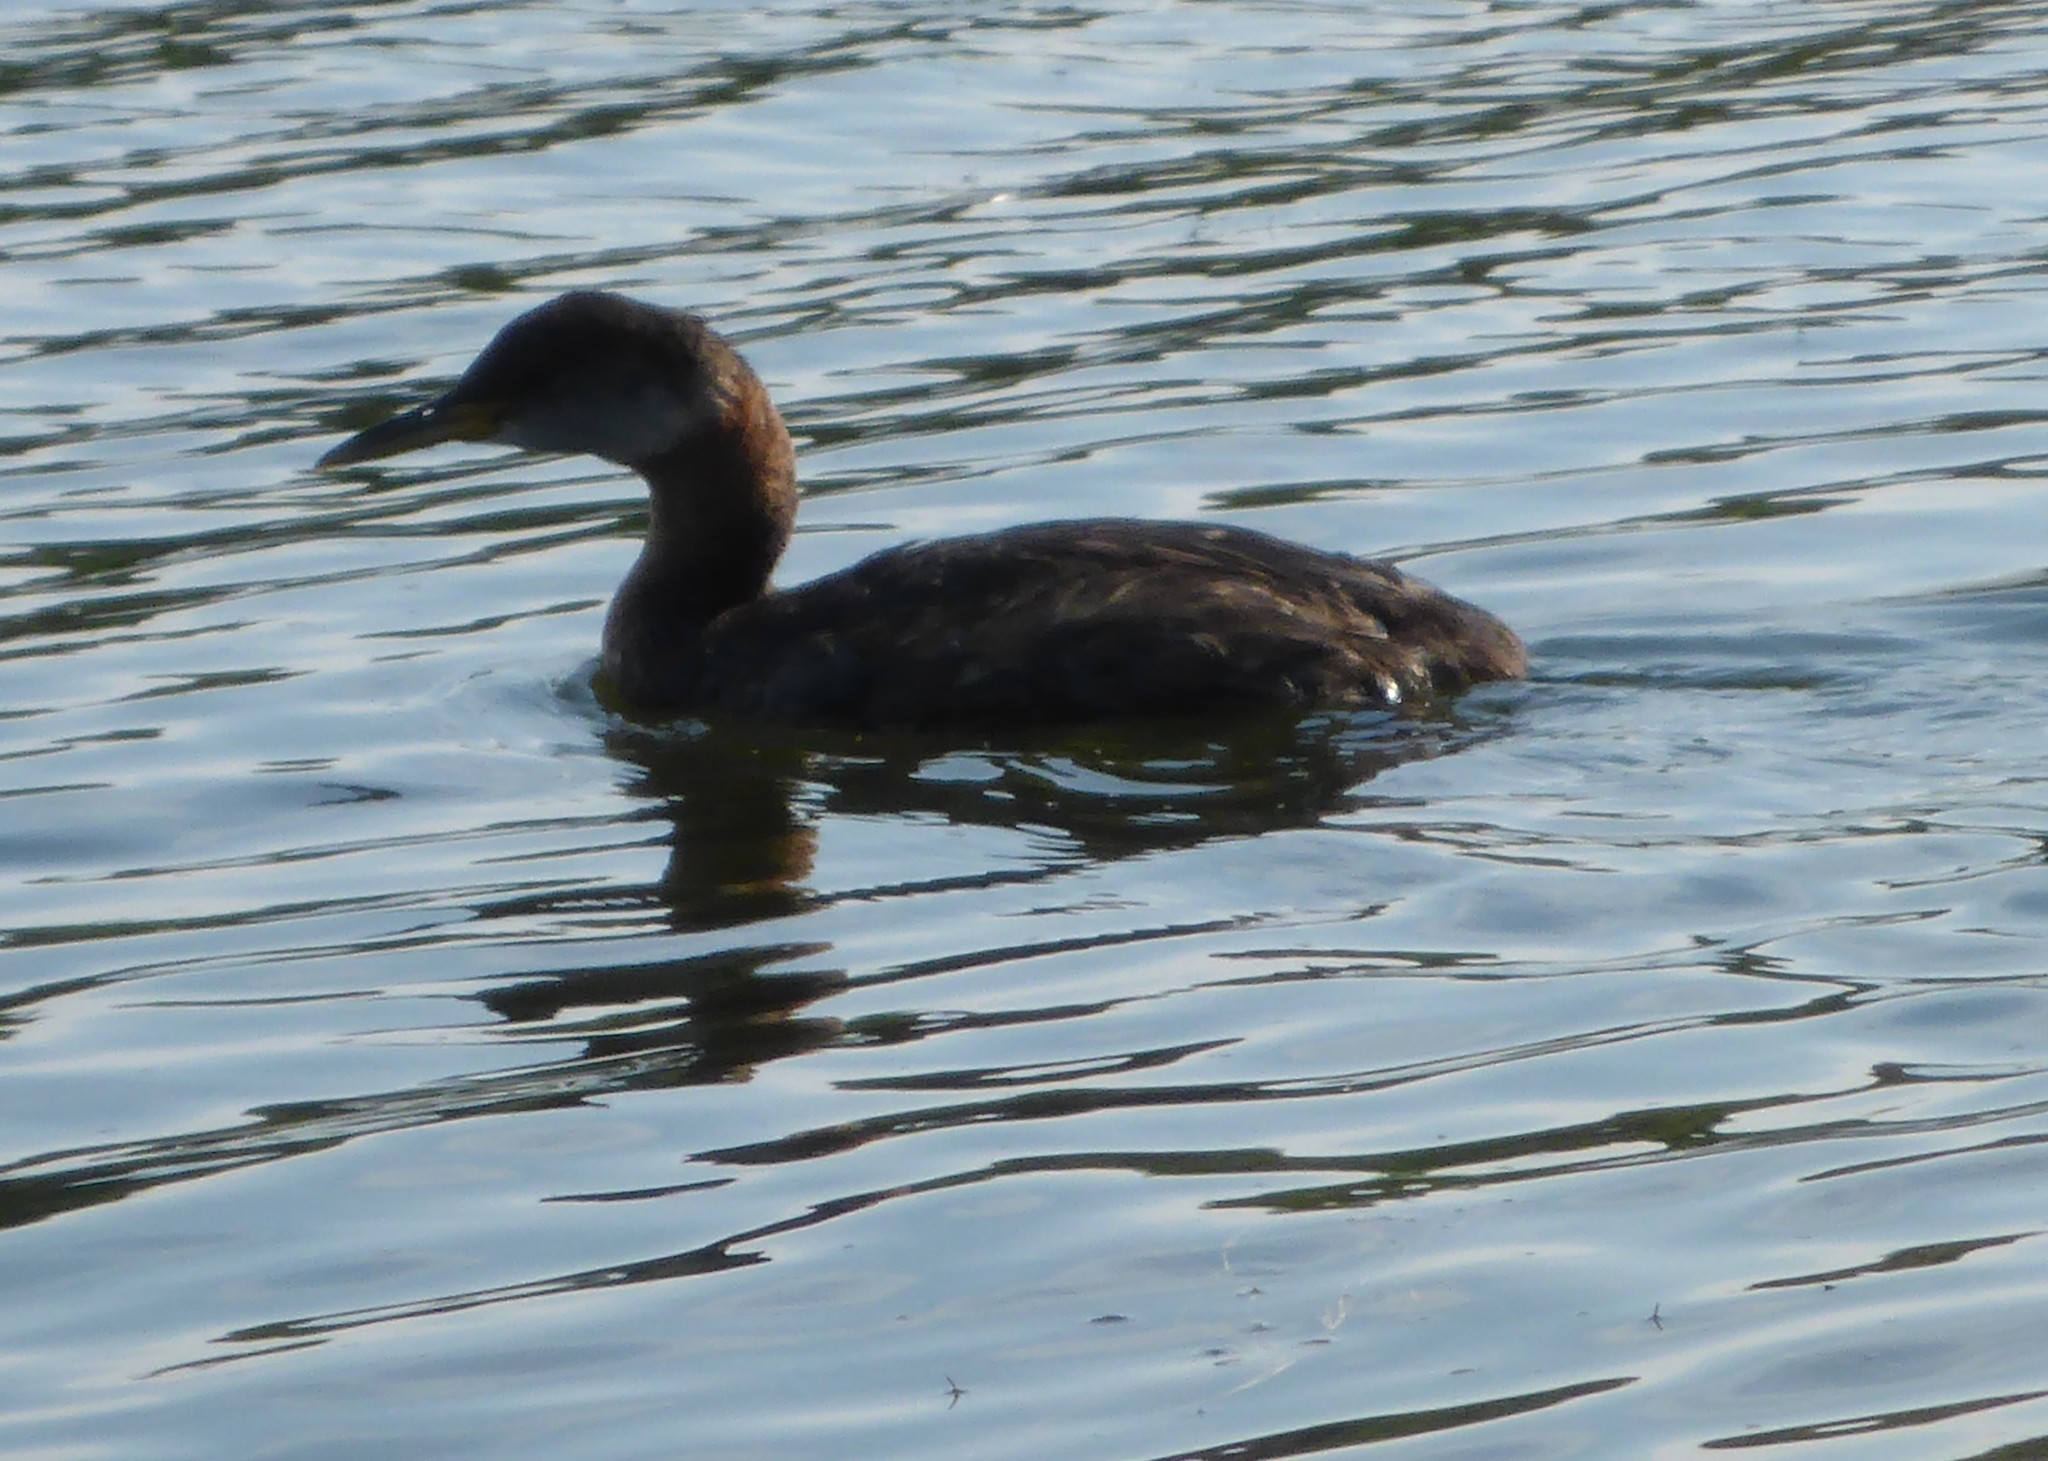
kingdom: Animalia
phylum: Chordata
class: Aves
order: Podicipediformes
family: Podicipedidae
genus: Podiceps
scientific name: Podiceps grisegena
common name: Red-necked grebe
